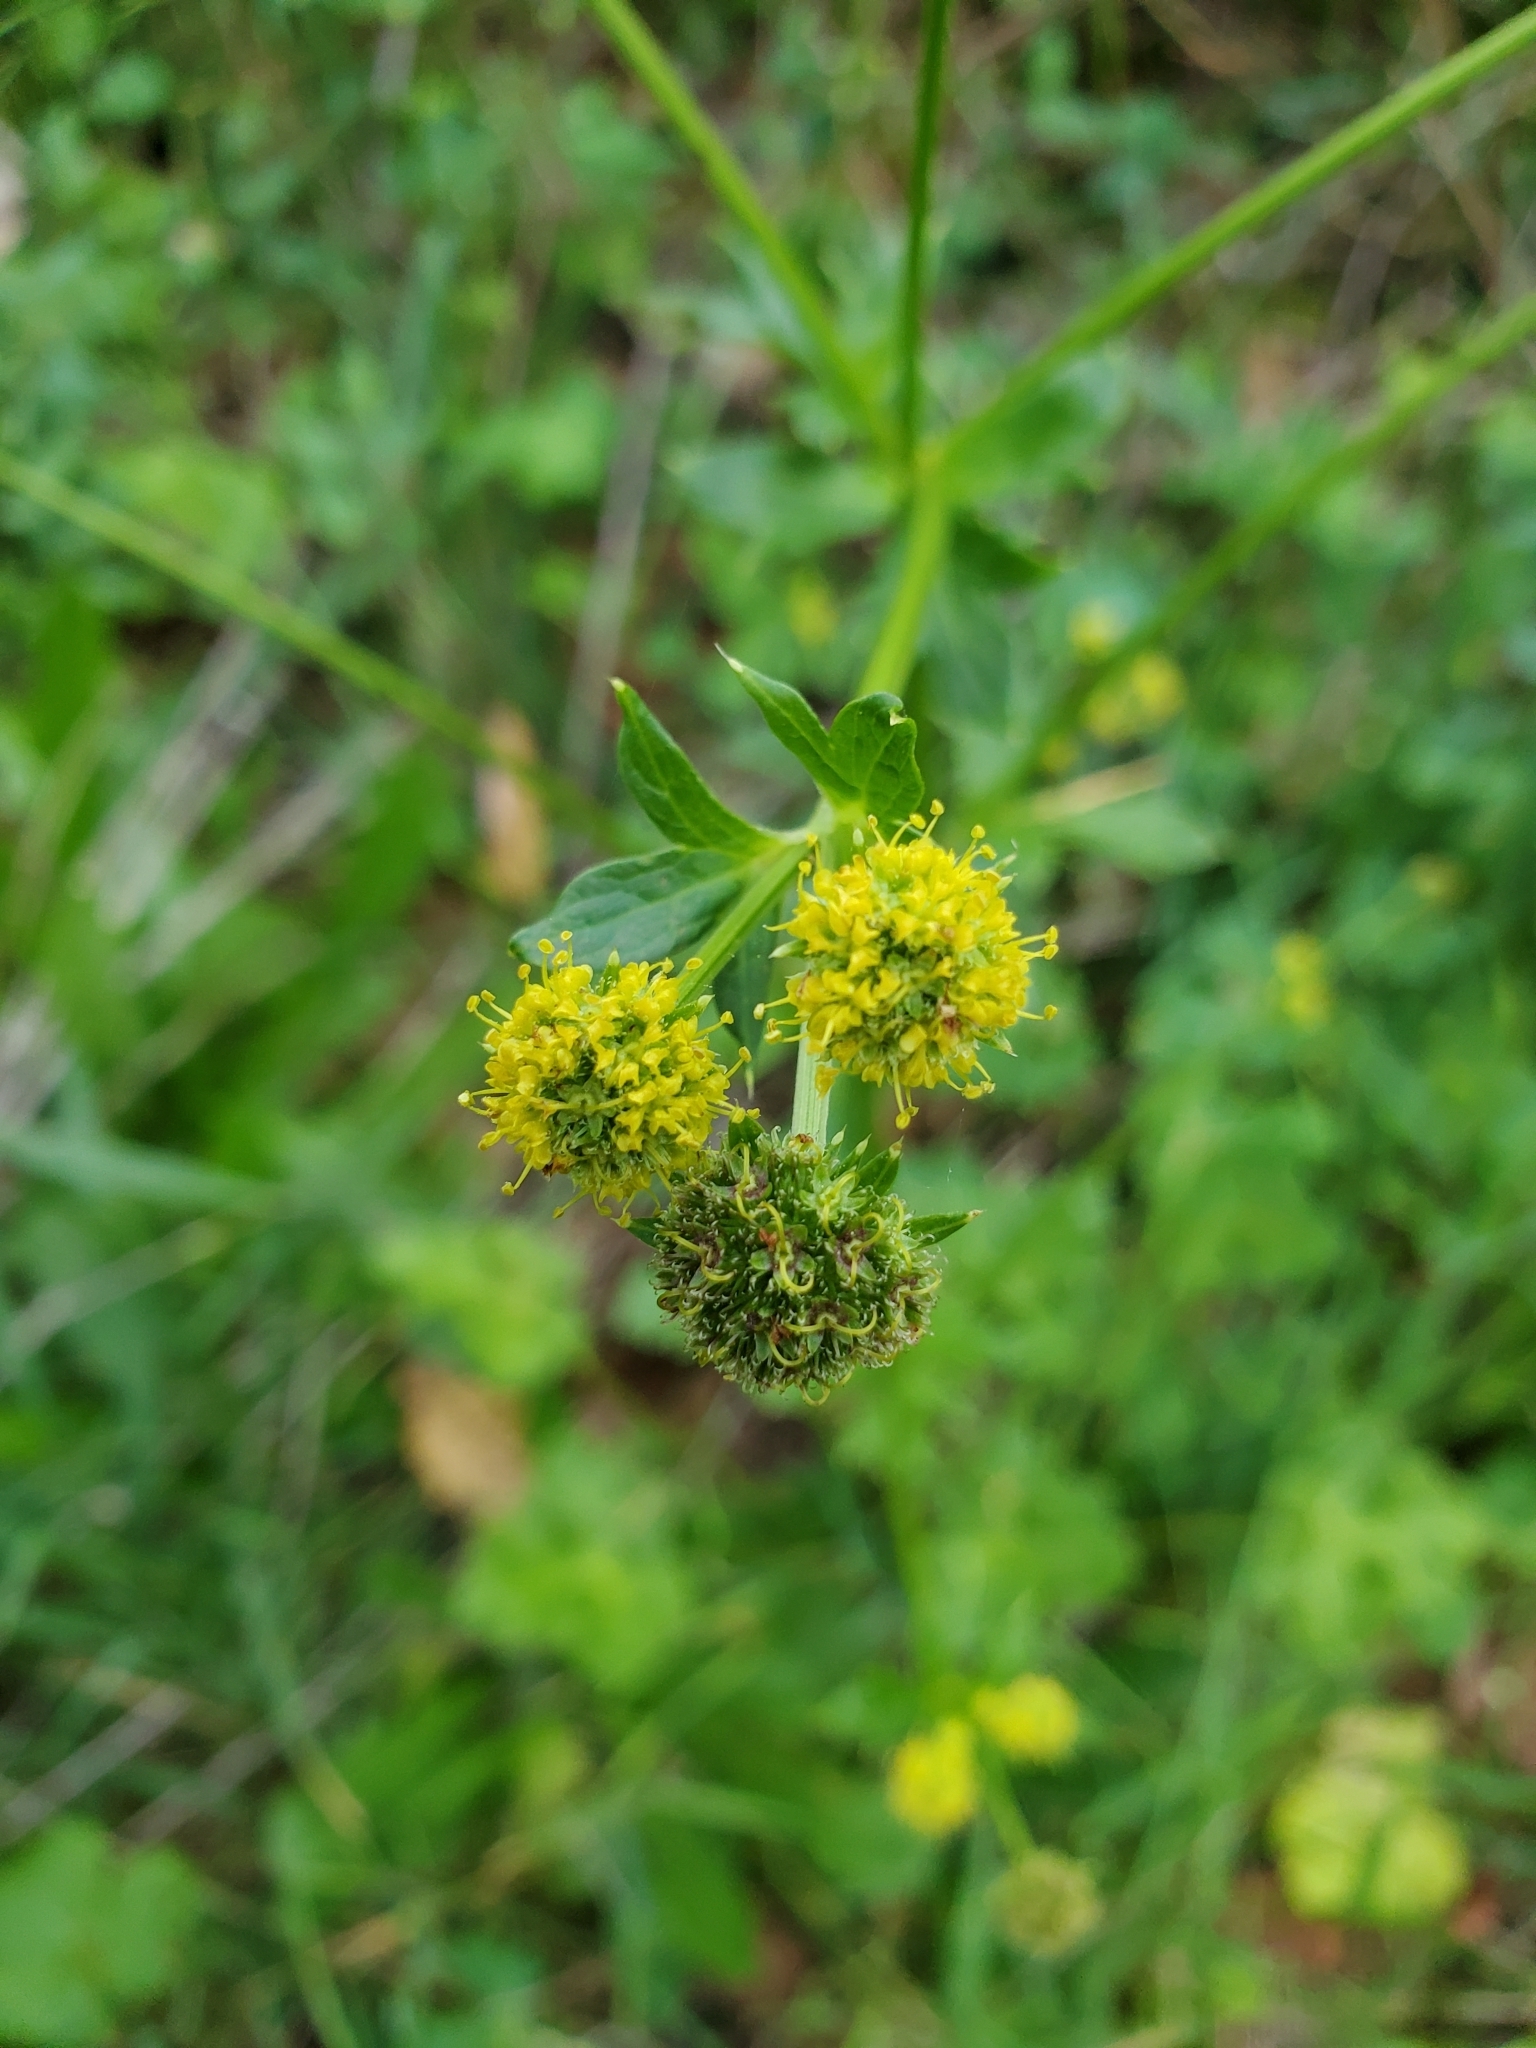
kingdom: Plantae
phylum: Tracheophyta
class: Magnoliopsida
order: Apiales
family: Apiaceae
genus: Sanicula
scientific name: Sanicula crassicaulis
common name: Western snakeroot
